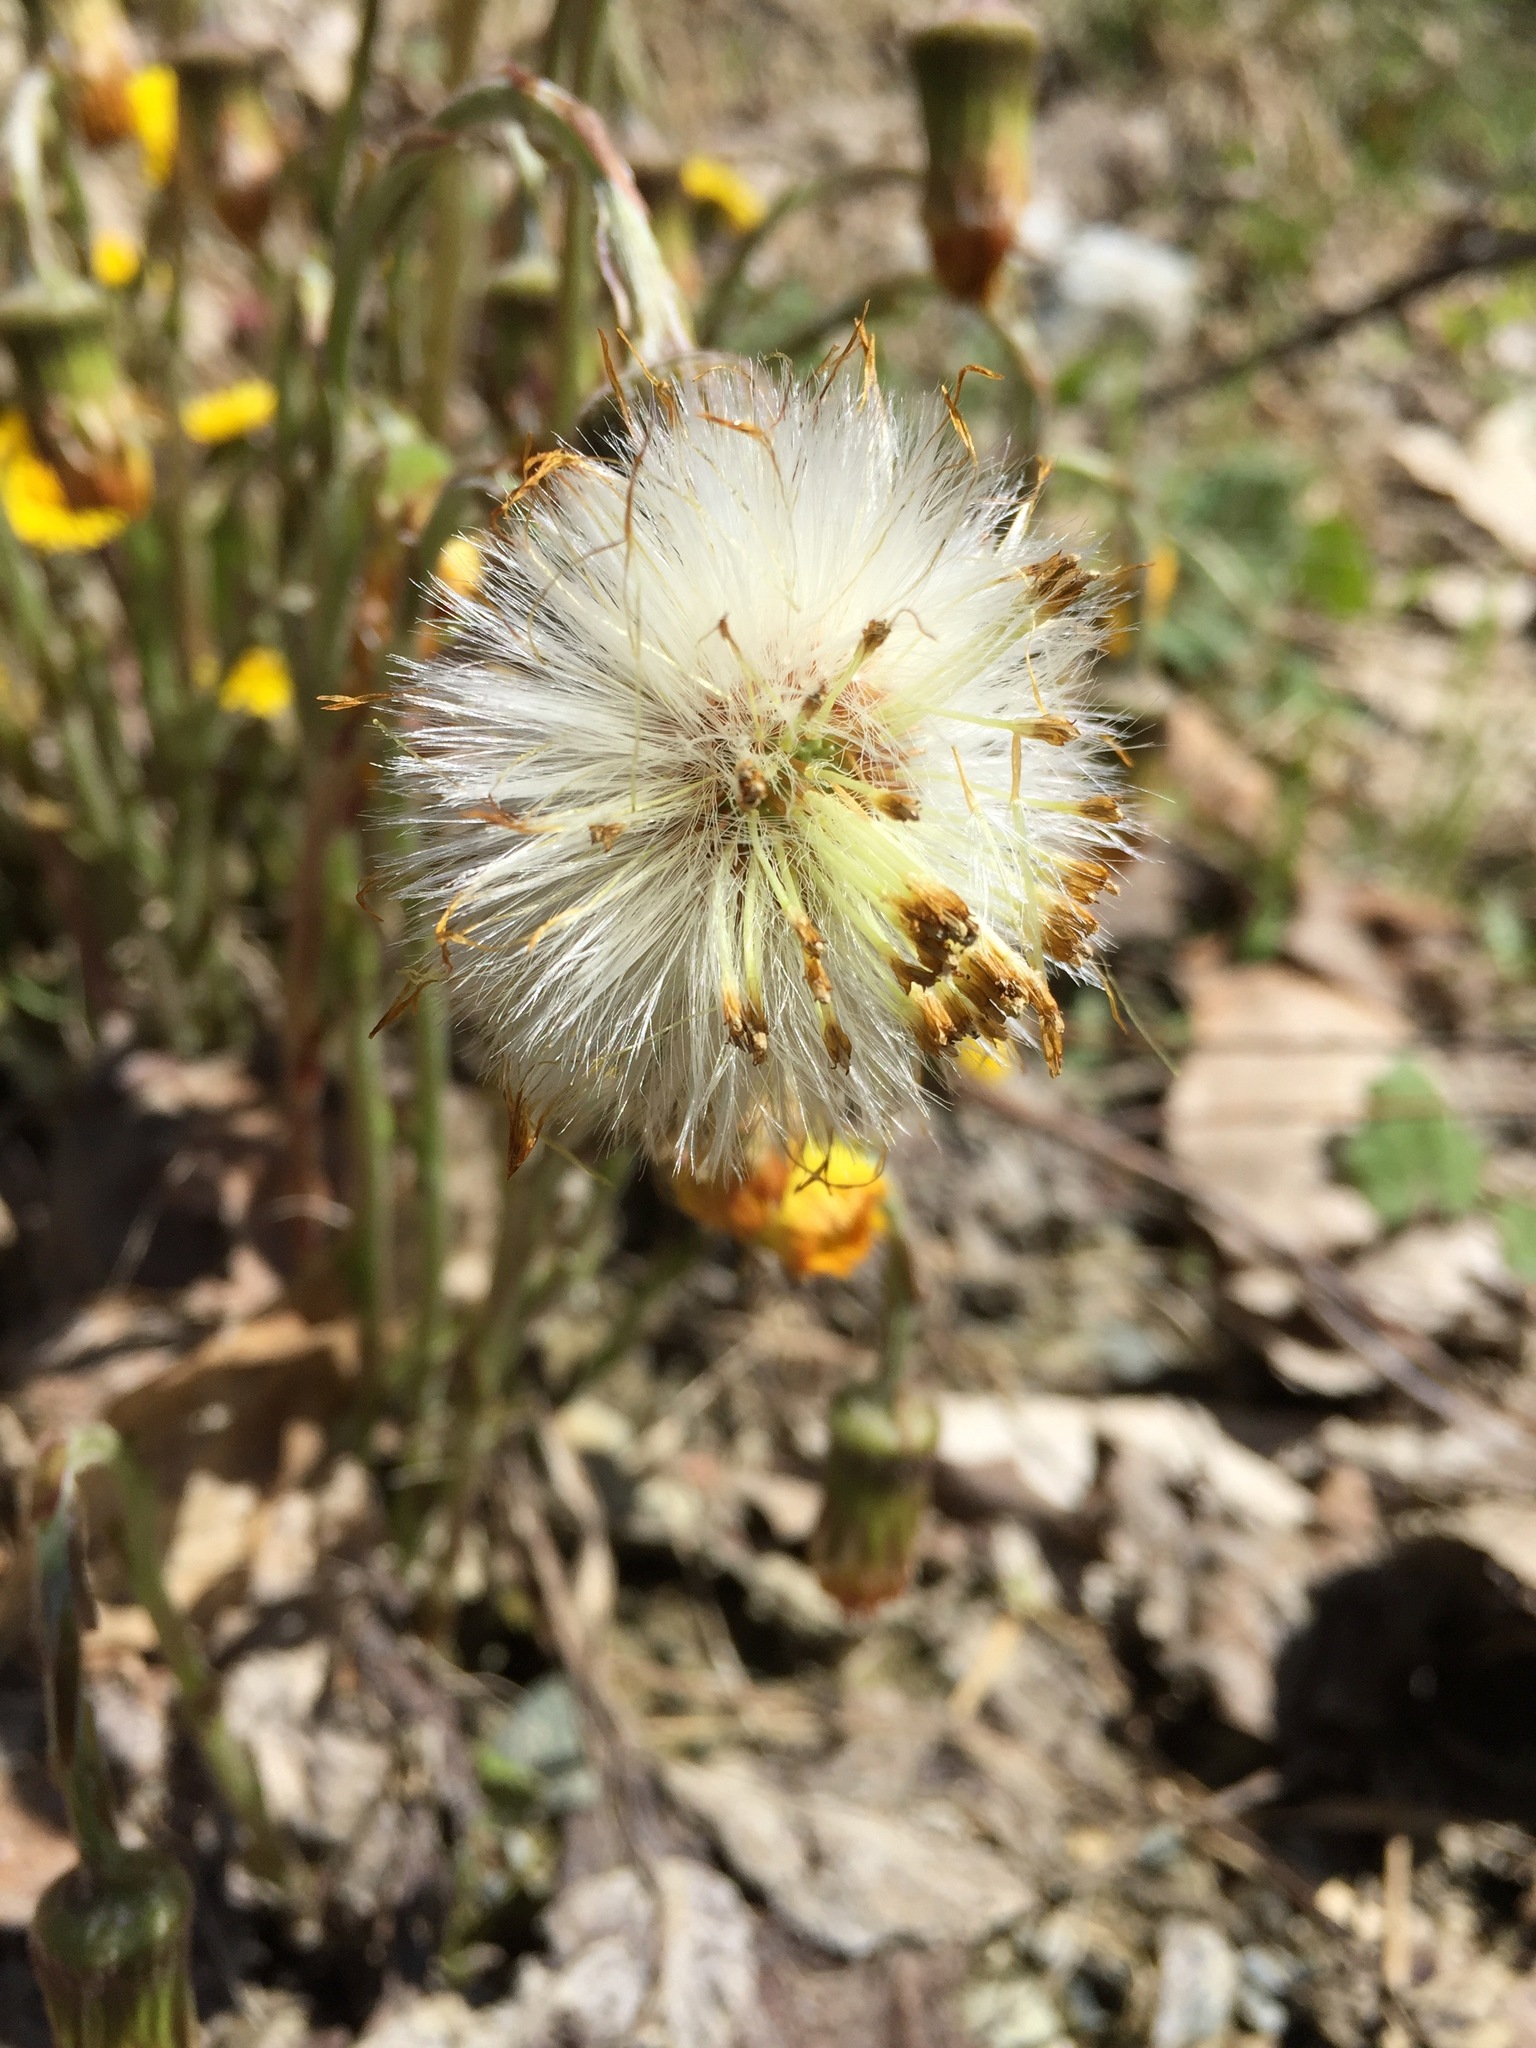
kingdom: Plantae
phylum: Tracheophyta
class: Magnoliopsida
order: Asterales
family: Asteraceae
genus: Tussilago
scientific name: Tussilago farfara
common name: Coltsfoot
